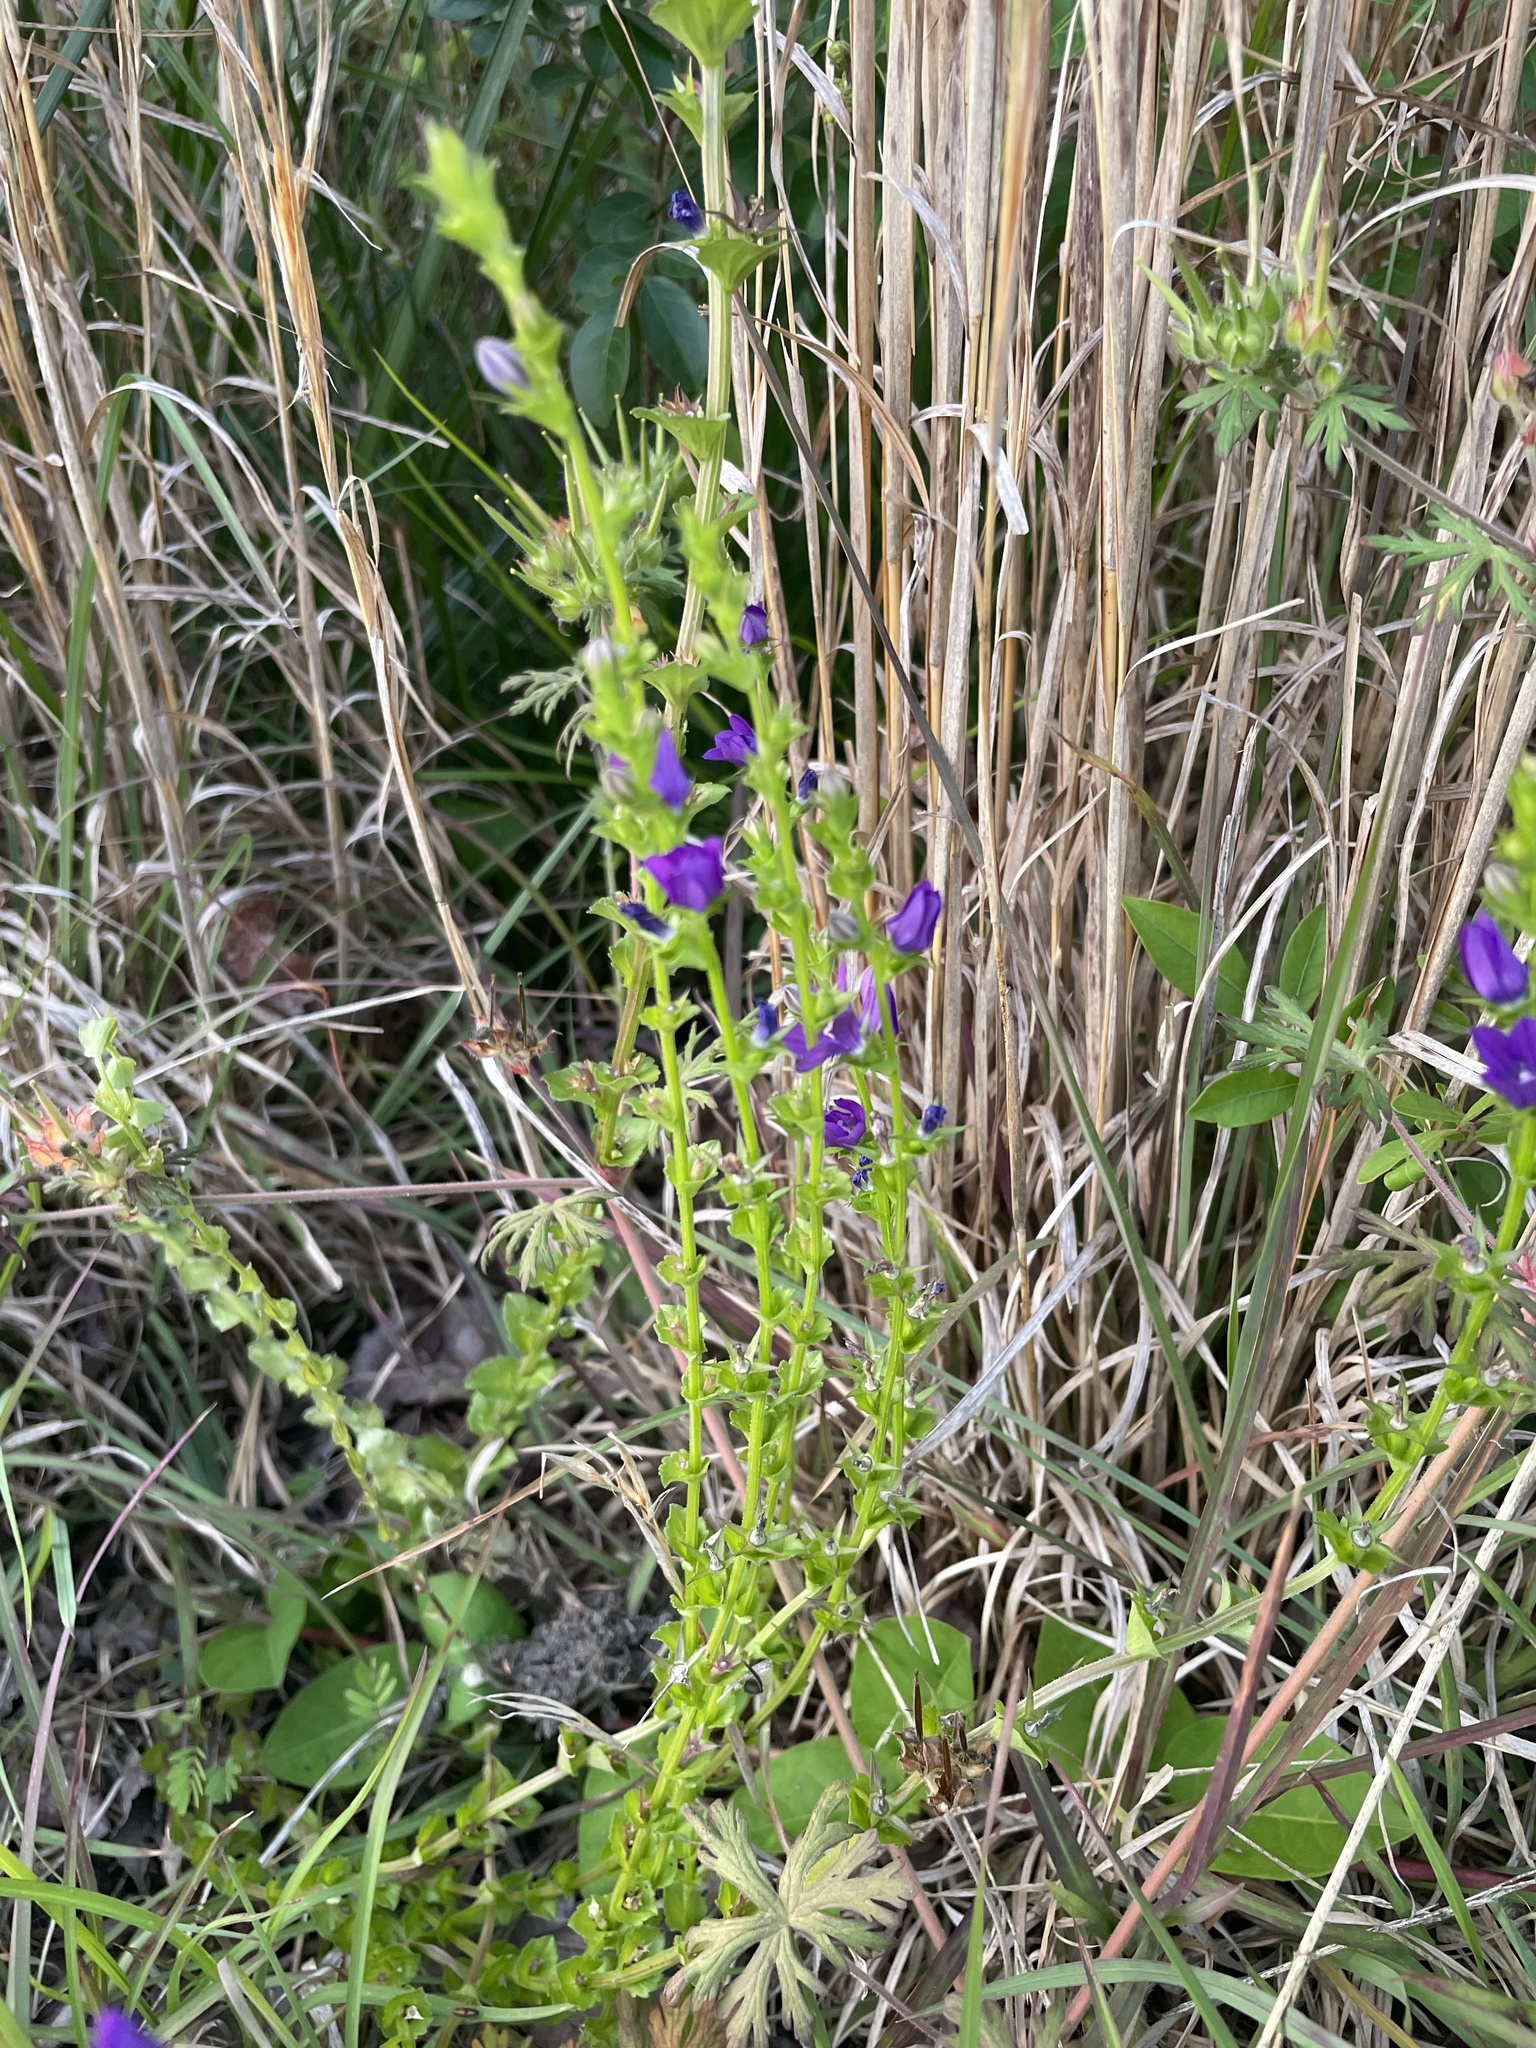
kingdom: Plantae
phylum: Tracheophyta
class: Magnoliopsida
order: Asterales
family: Campanulaceae
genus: Triodanis
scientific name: Triodanis perfoliata
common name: Clasping venus' looking-glass
